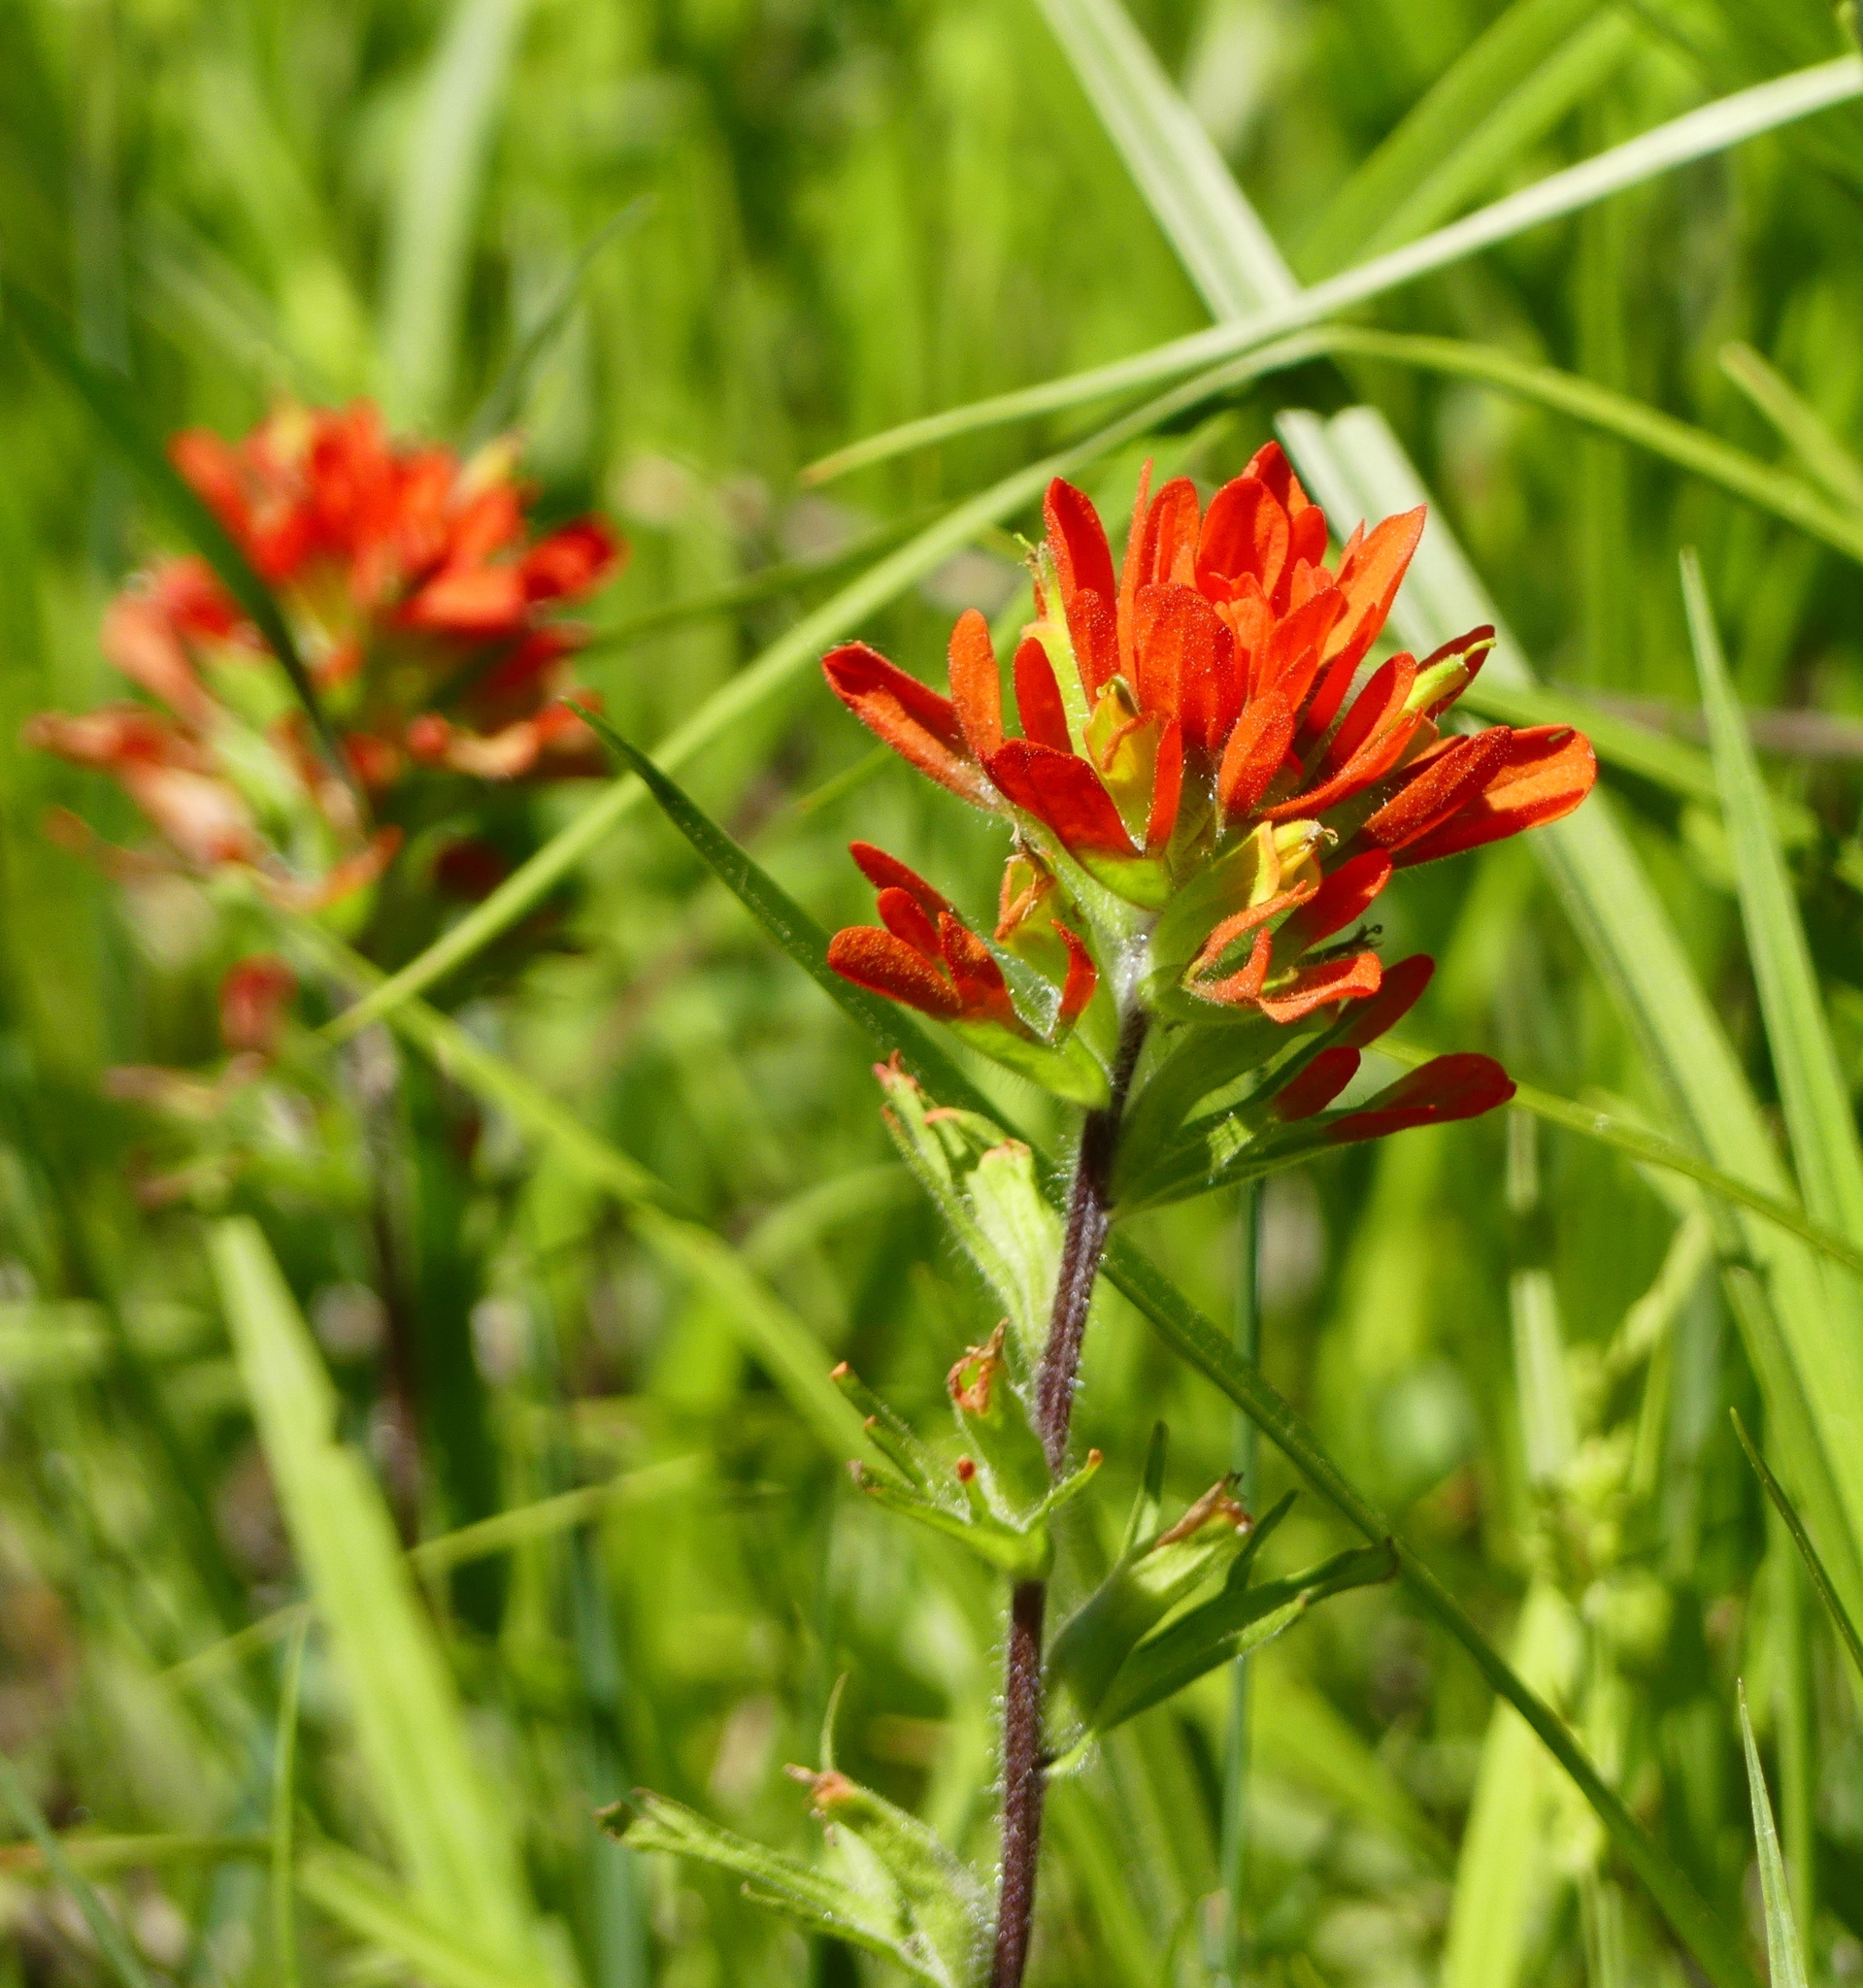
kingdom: Plantae
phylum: Tracheophyta
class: Magnoliopsida
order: Lamiales
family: Orobanchaceae
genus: Castilleja
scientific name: Castilleja coccinea
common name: Scarlet paintbrush
